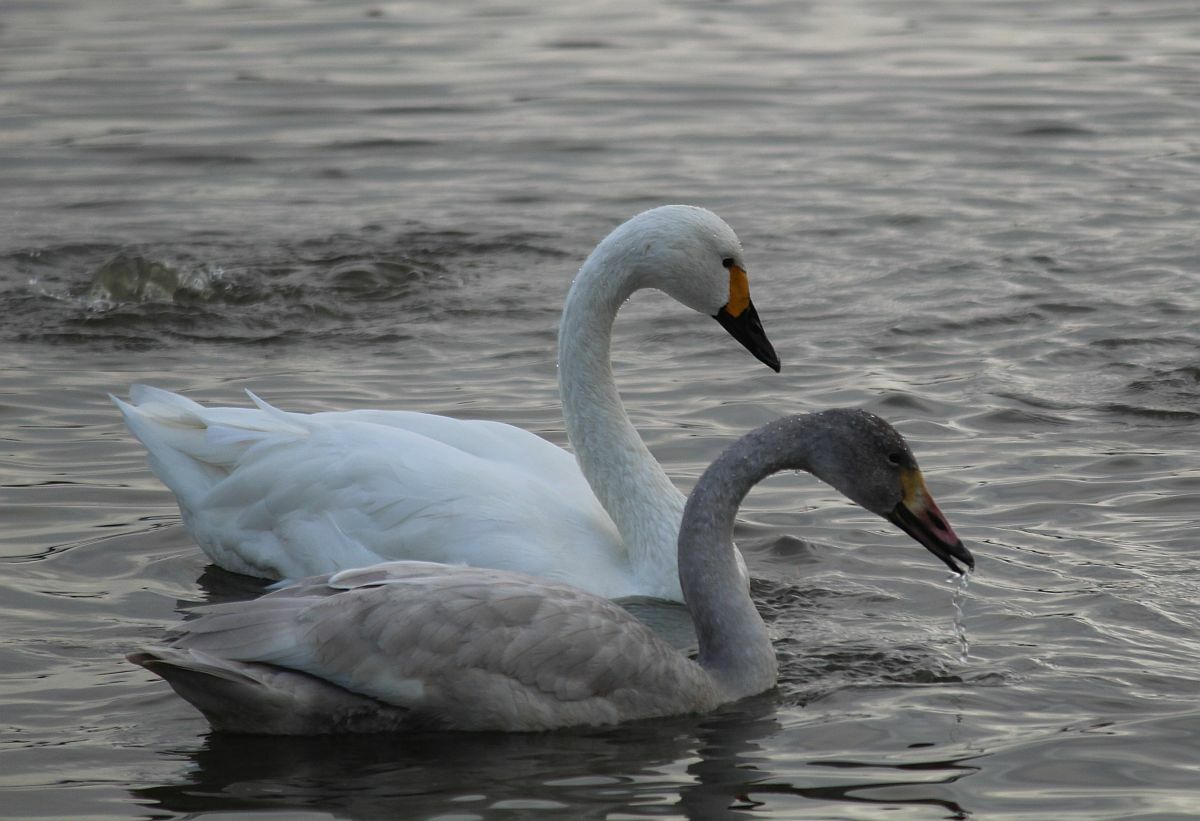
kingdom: Animalia
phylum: Chordata
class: Aves
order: Anseriformes
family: Anatidae
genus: Cygnus
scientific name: Cygnus columbianus
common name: Tundra swan
